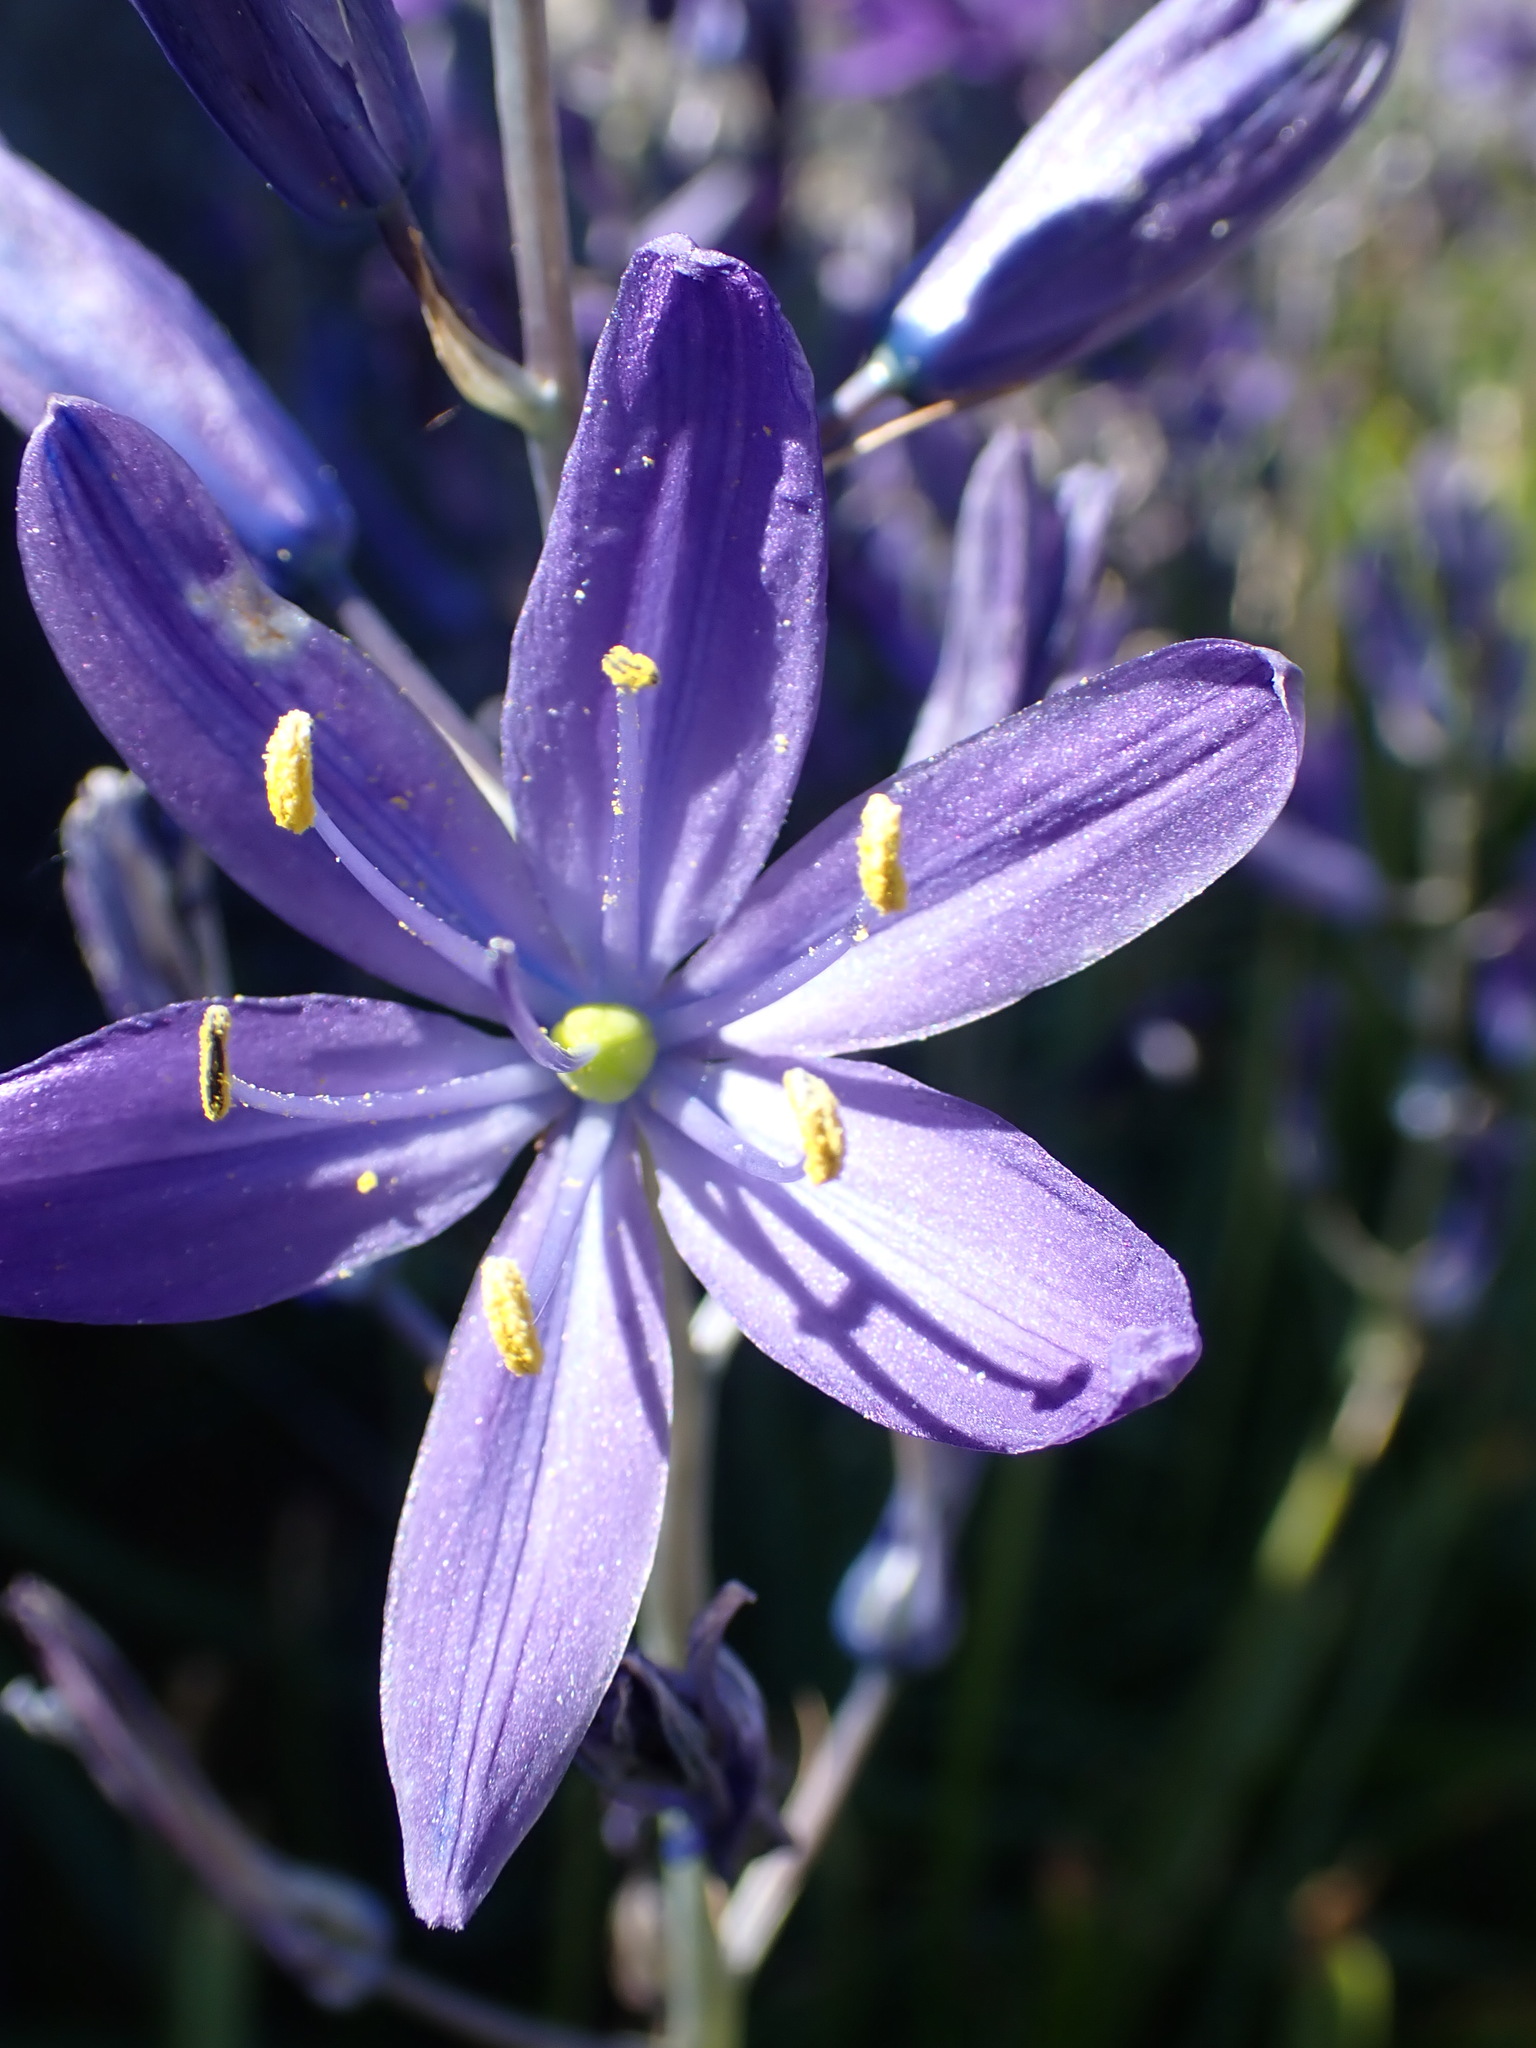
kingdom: Plantae
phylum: Tracheophyta
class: Liliopsida
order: Asparagales
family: Asparagaceae
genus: Camassia
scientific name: Camassia leichtlinii
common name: Leichtlin's camas
